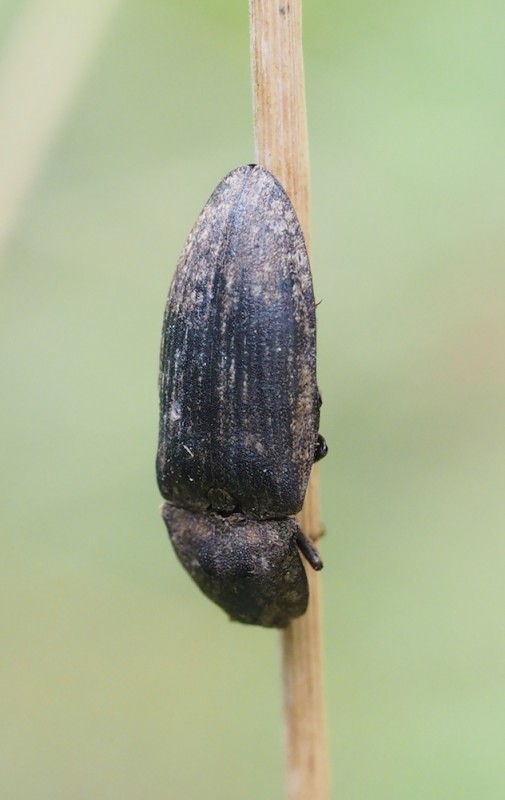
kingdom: Animalia
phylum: Arthropoda
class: Insecta
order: Coleoptera
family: Elateridae
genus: Agrypnus
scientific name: Agrypnus murinus
